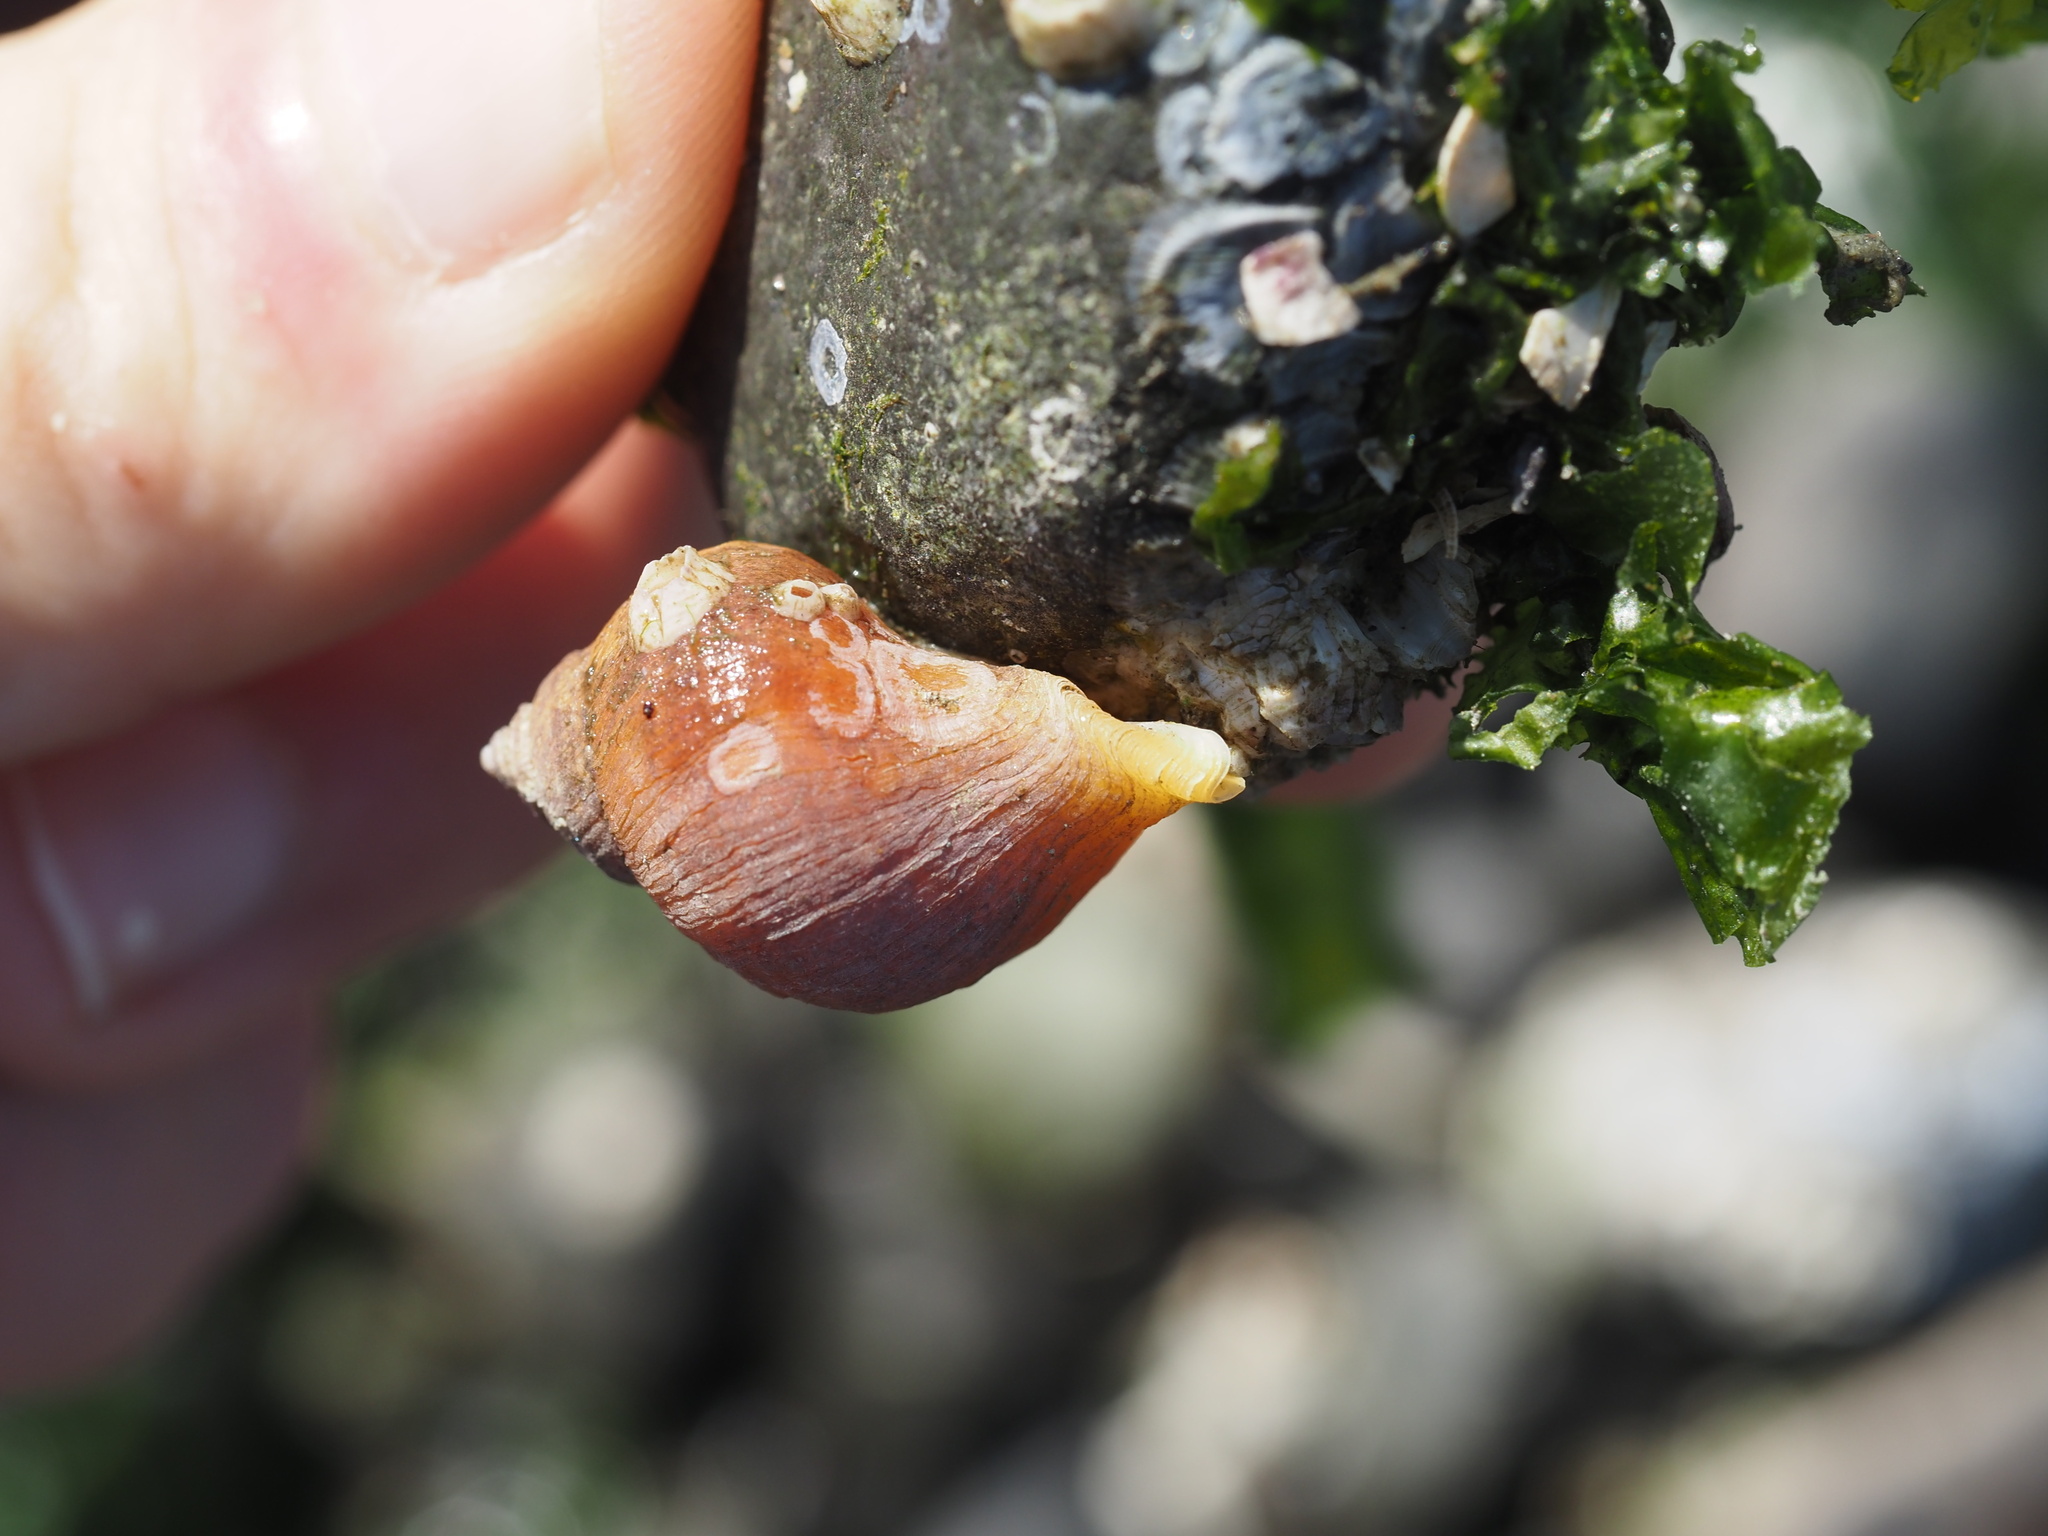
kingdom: Animalia
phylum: Mollusca
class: Gastropoda
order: Neogastropoda
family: Muricidae
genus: Nucella
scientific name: Nucella lamellosa
